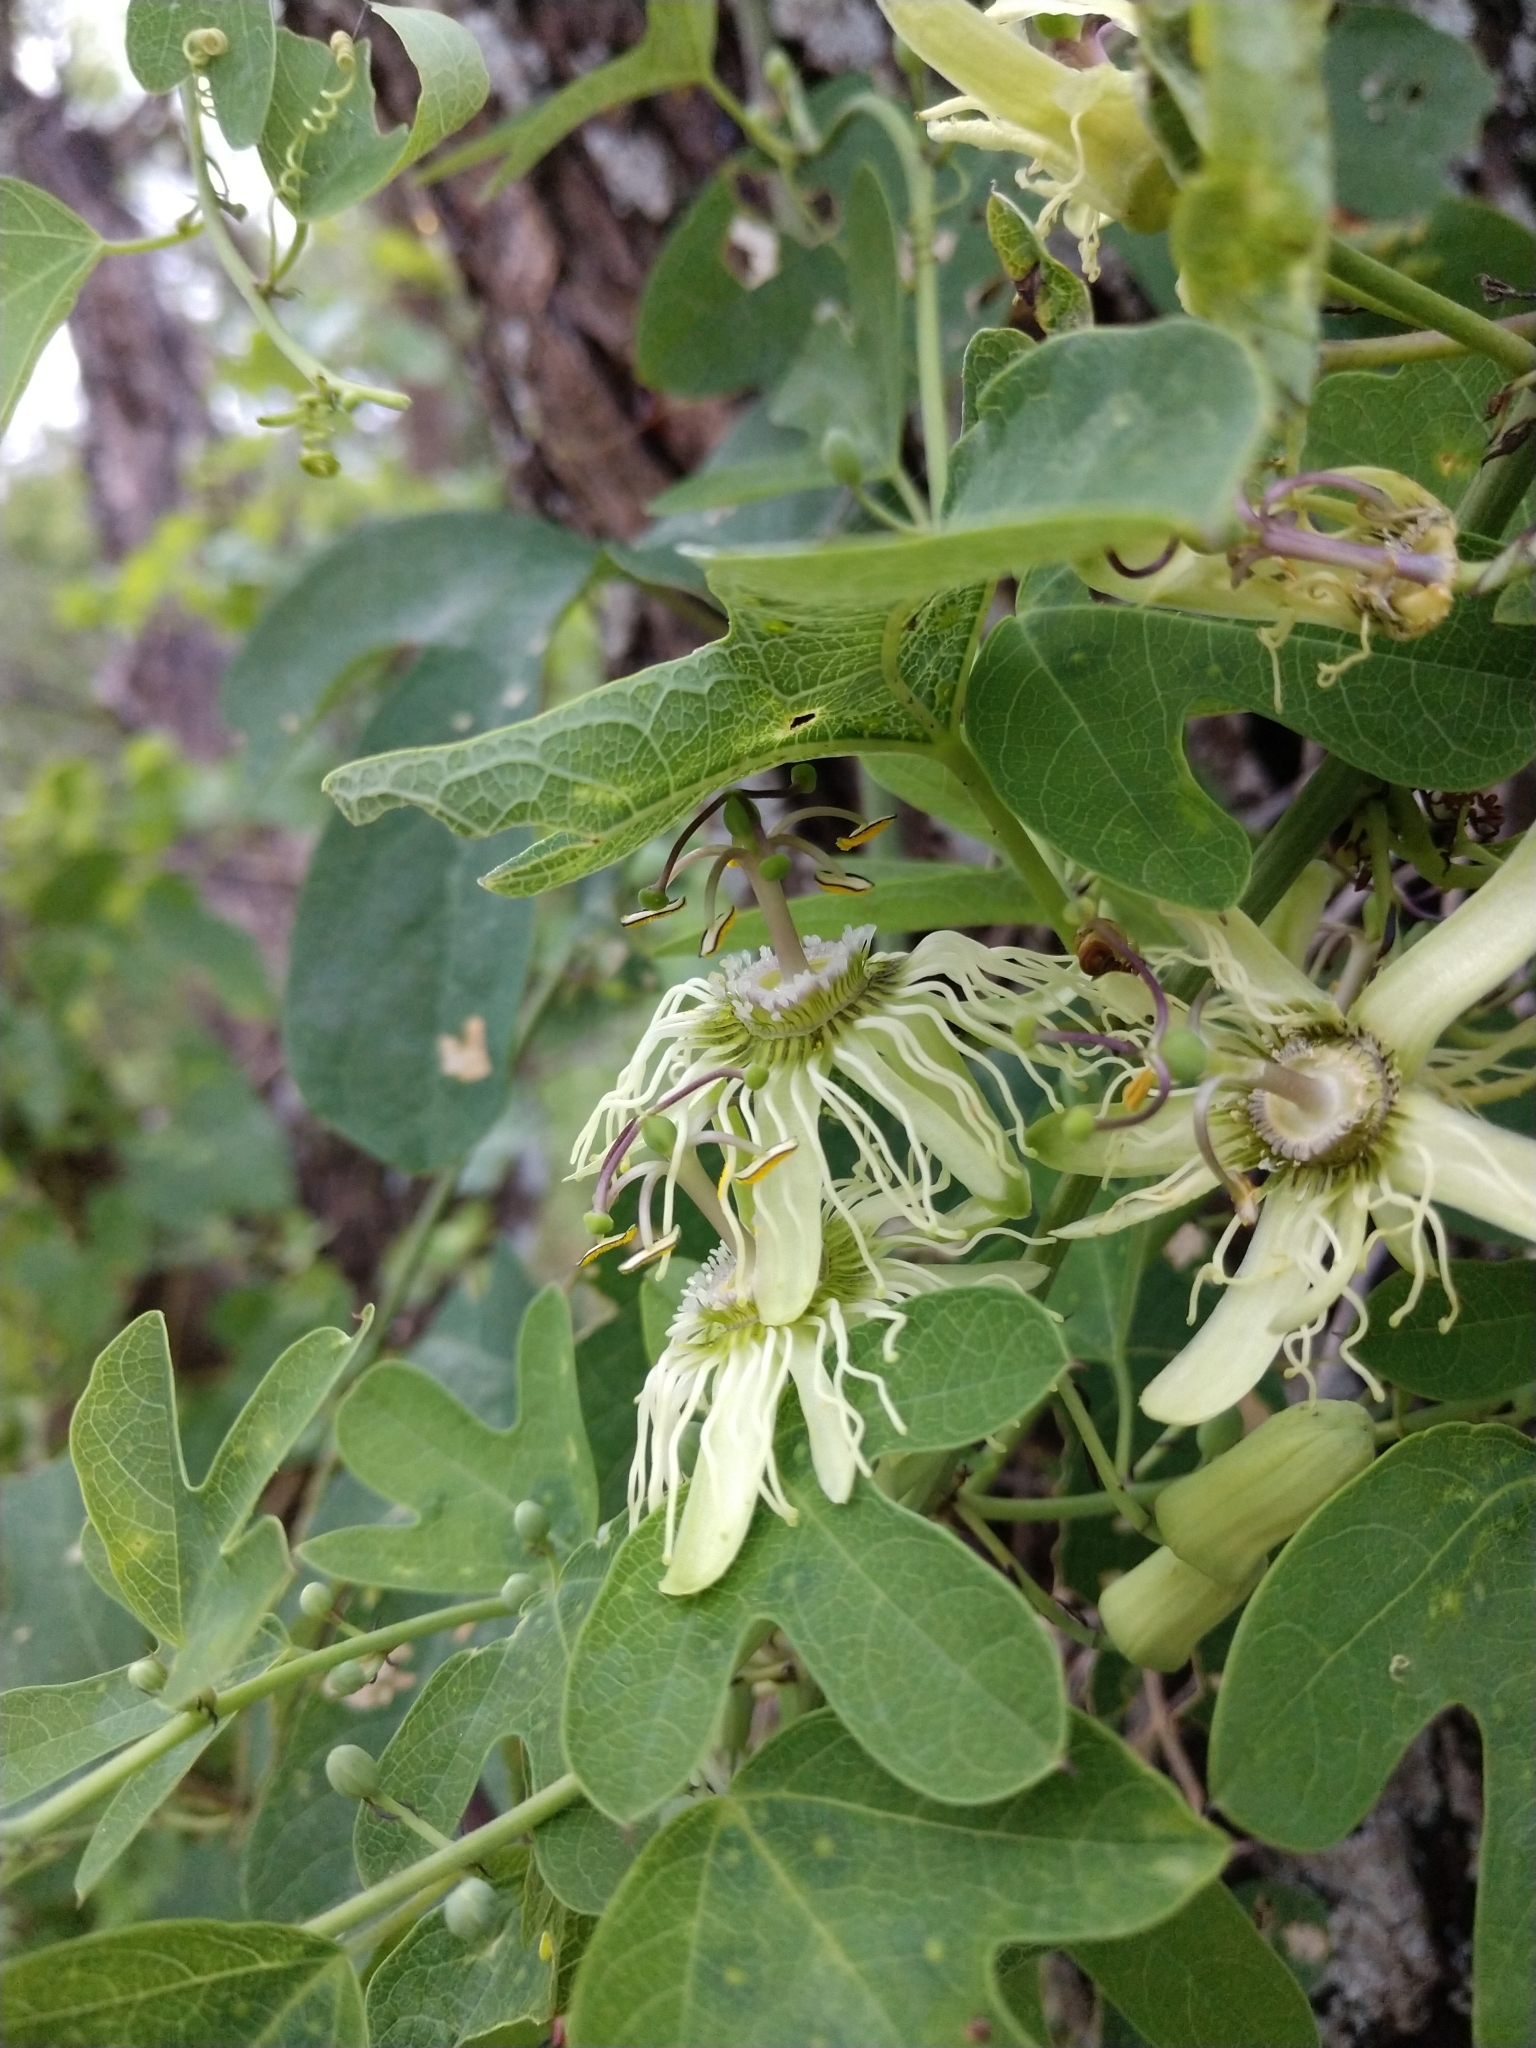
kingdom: Plantae
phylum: Tracheophyta
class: Magnoliopsida
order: Malpighiales
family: Passifloraceae
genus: Passiflora
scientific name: Passiflora affinis
